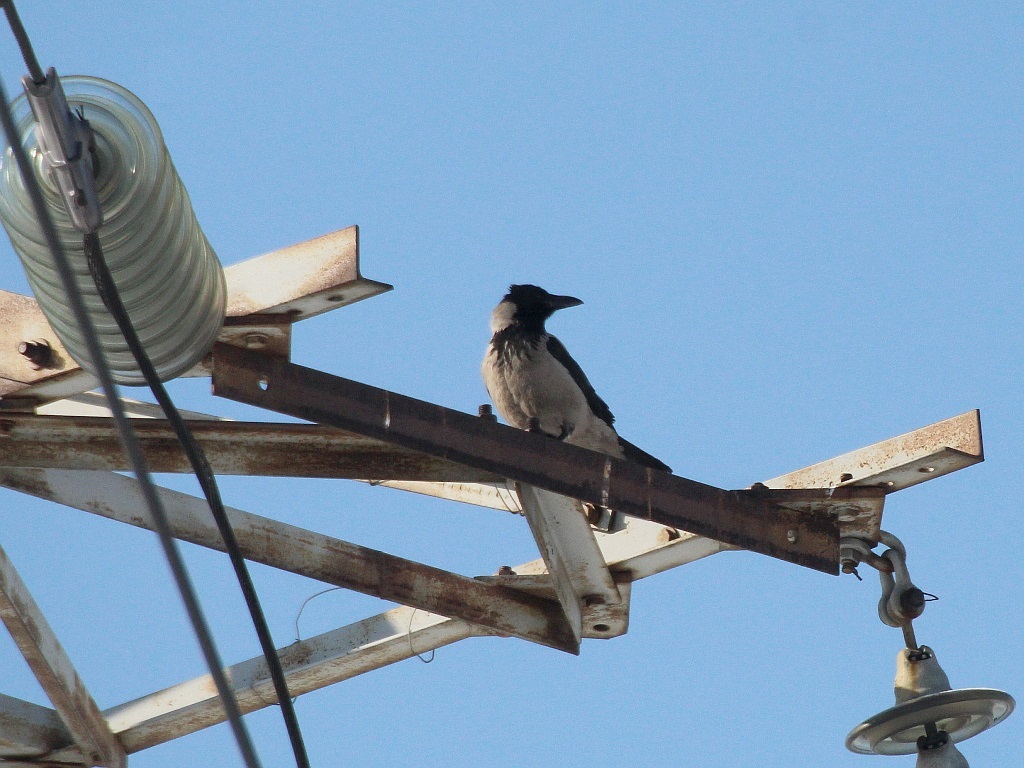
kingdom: Animalia
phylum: Chordata
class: Aves
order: Passeriformes
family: Corvidae
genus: Corvus
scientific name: Corvus cornix
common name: Hooded crow
